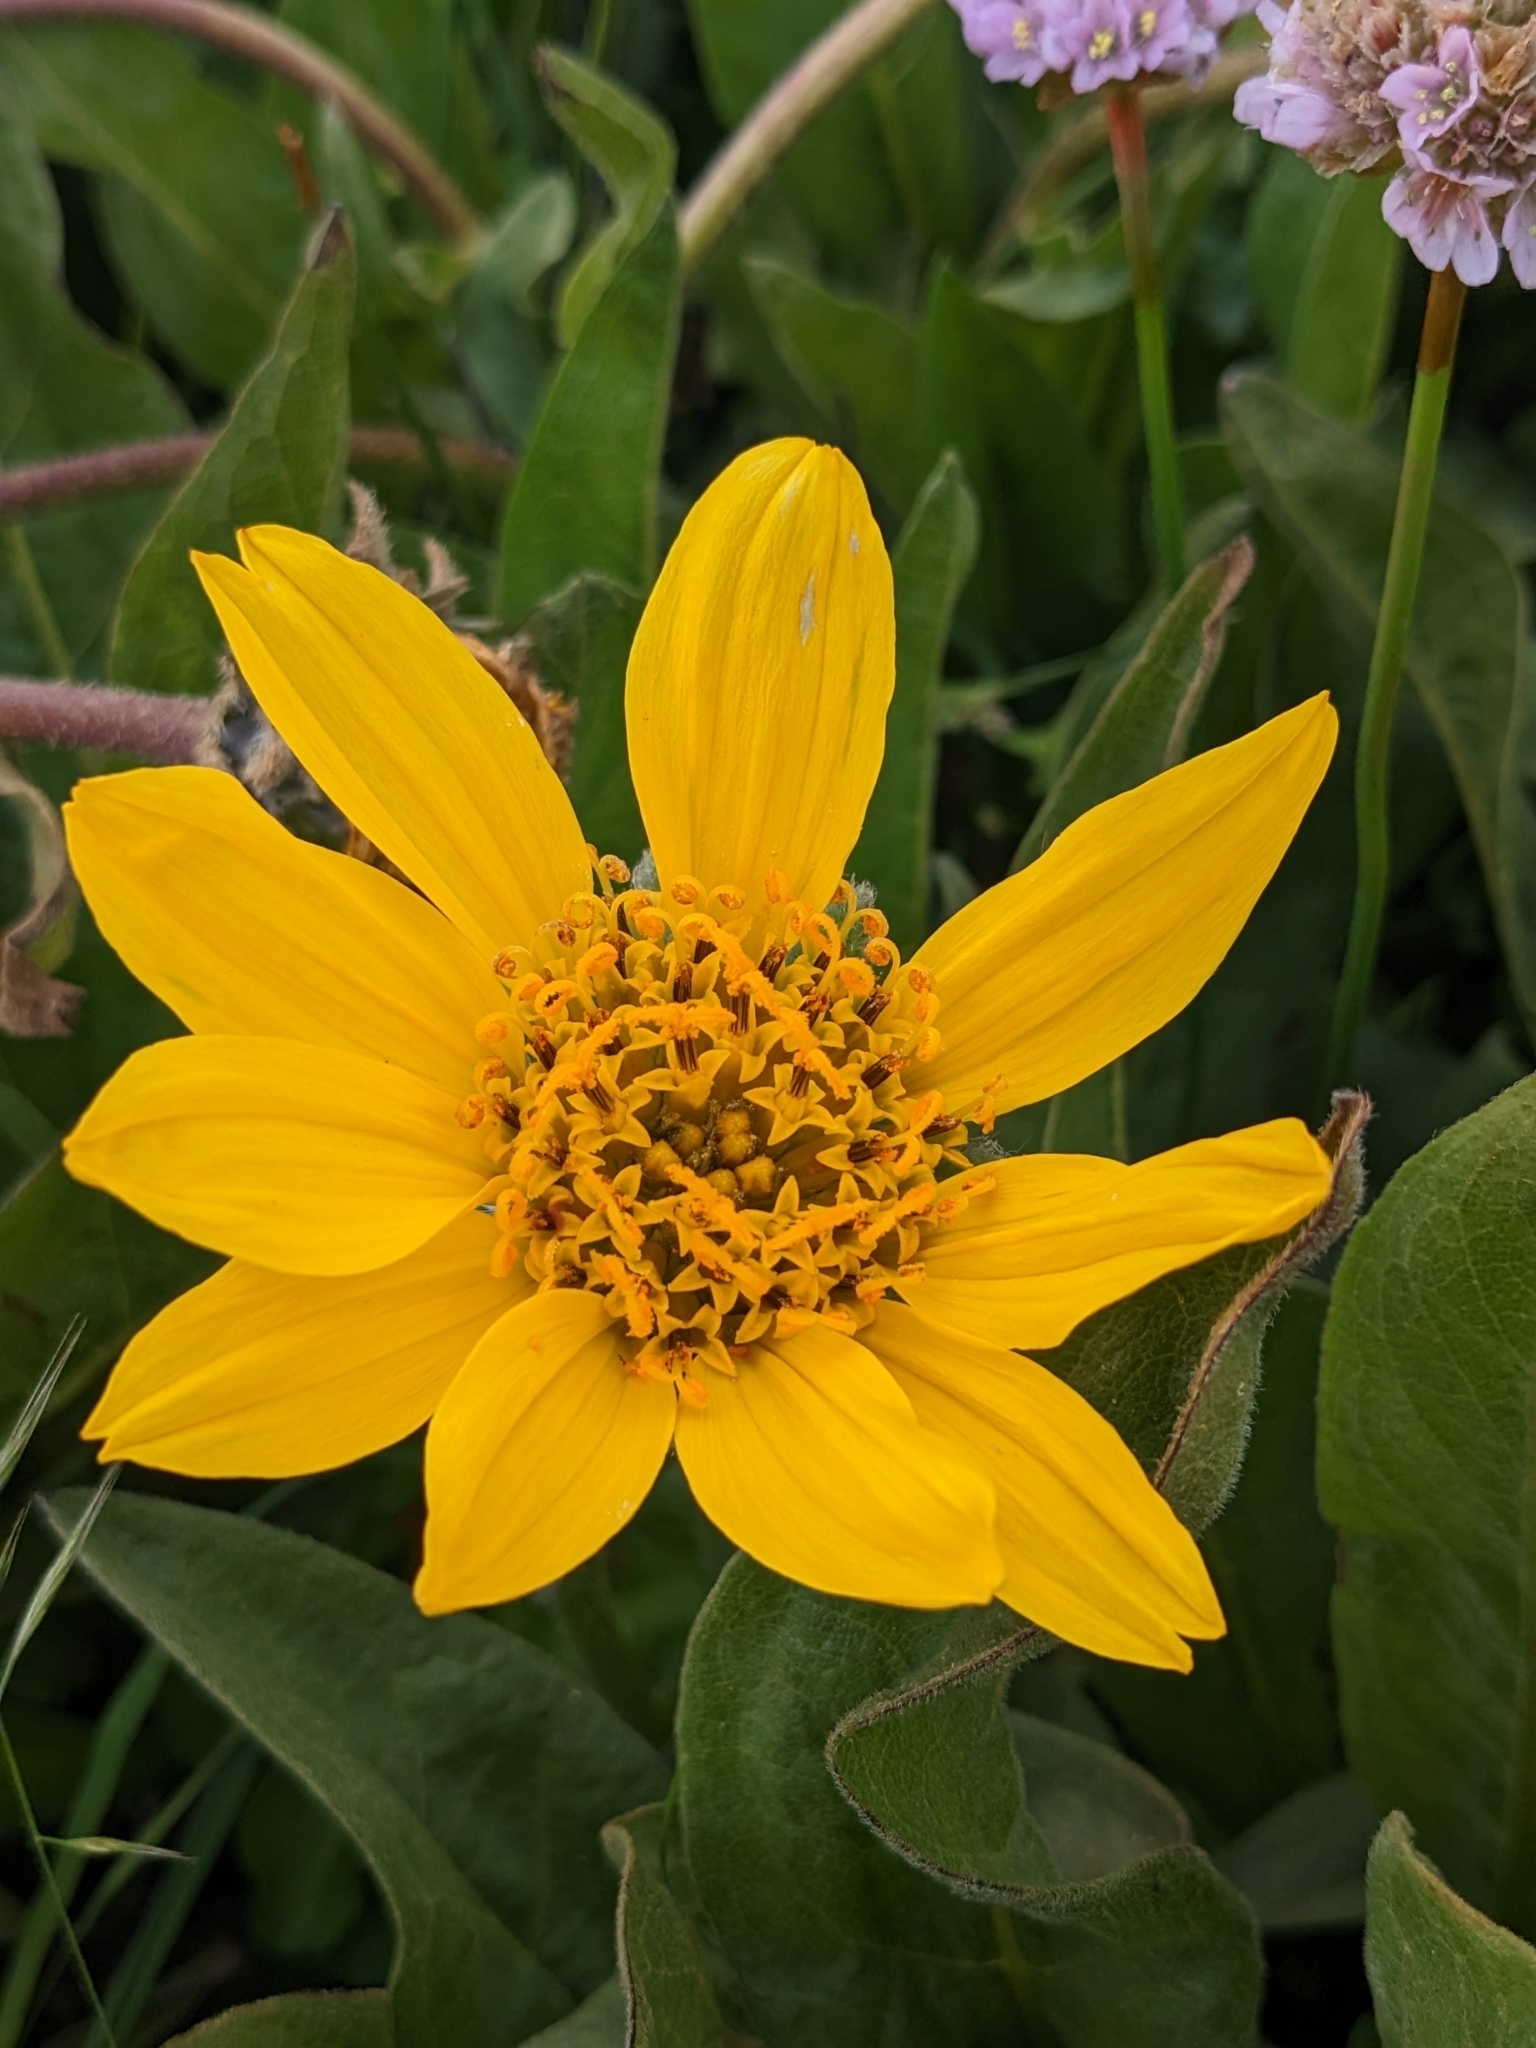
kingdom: Plantae
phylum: Tracheophyta
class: Magnoliopsida
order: Asterales
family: Asteraceae
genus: Wyethia
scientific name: Wyethia angustifolia
